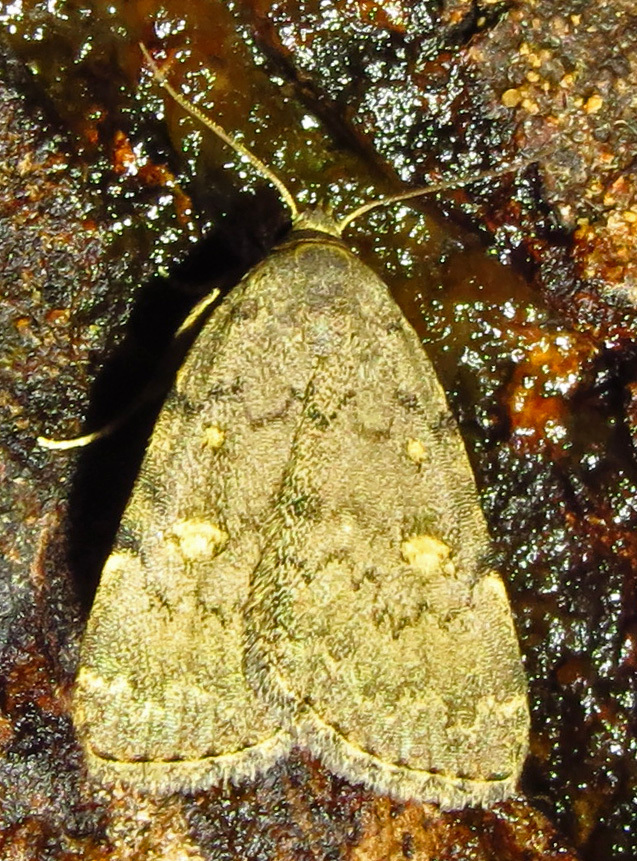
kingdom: Animalia
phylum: Arthropoda
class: Insecta
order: Lepidoptera
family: Erebidae
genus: Idia
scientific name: Idia aemula
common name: Common idia moth
